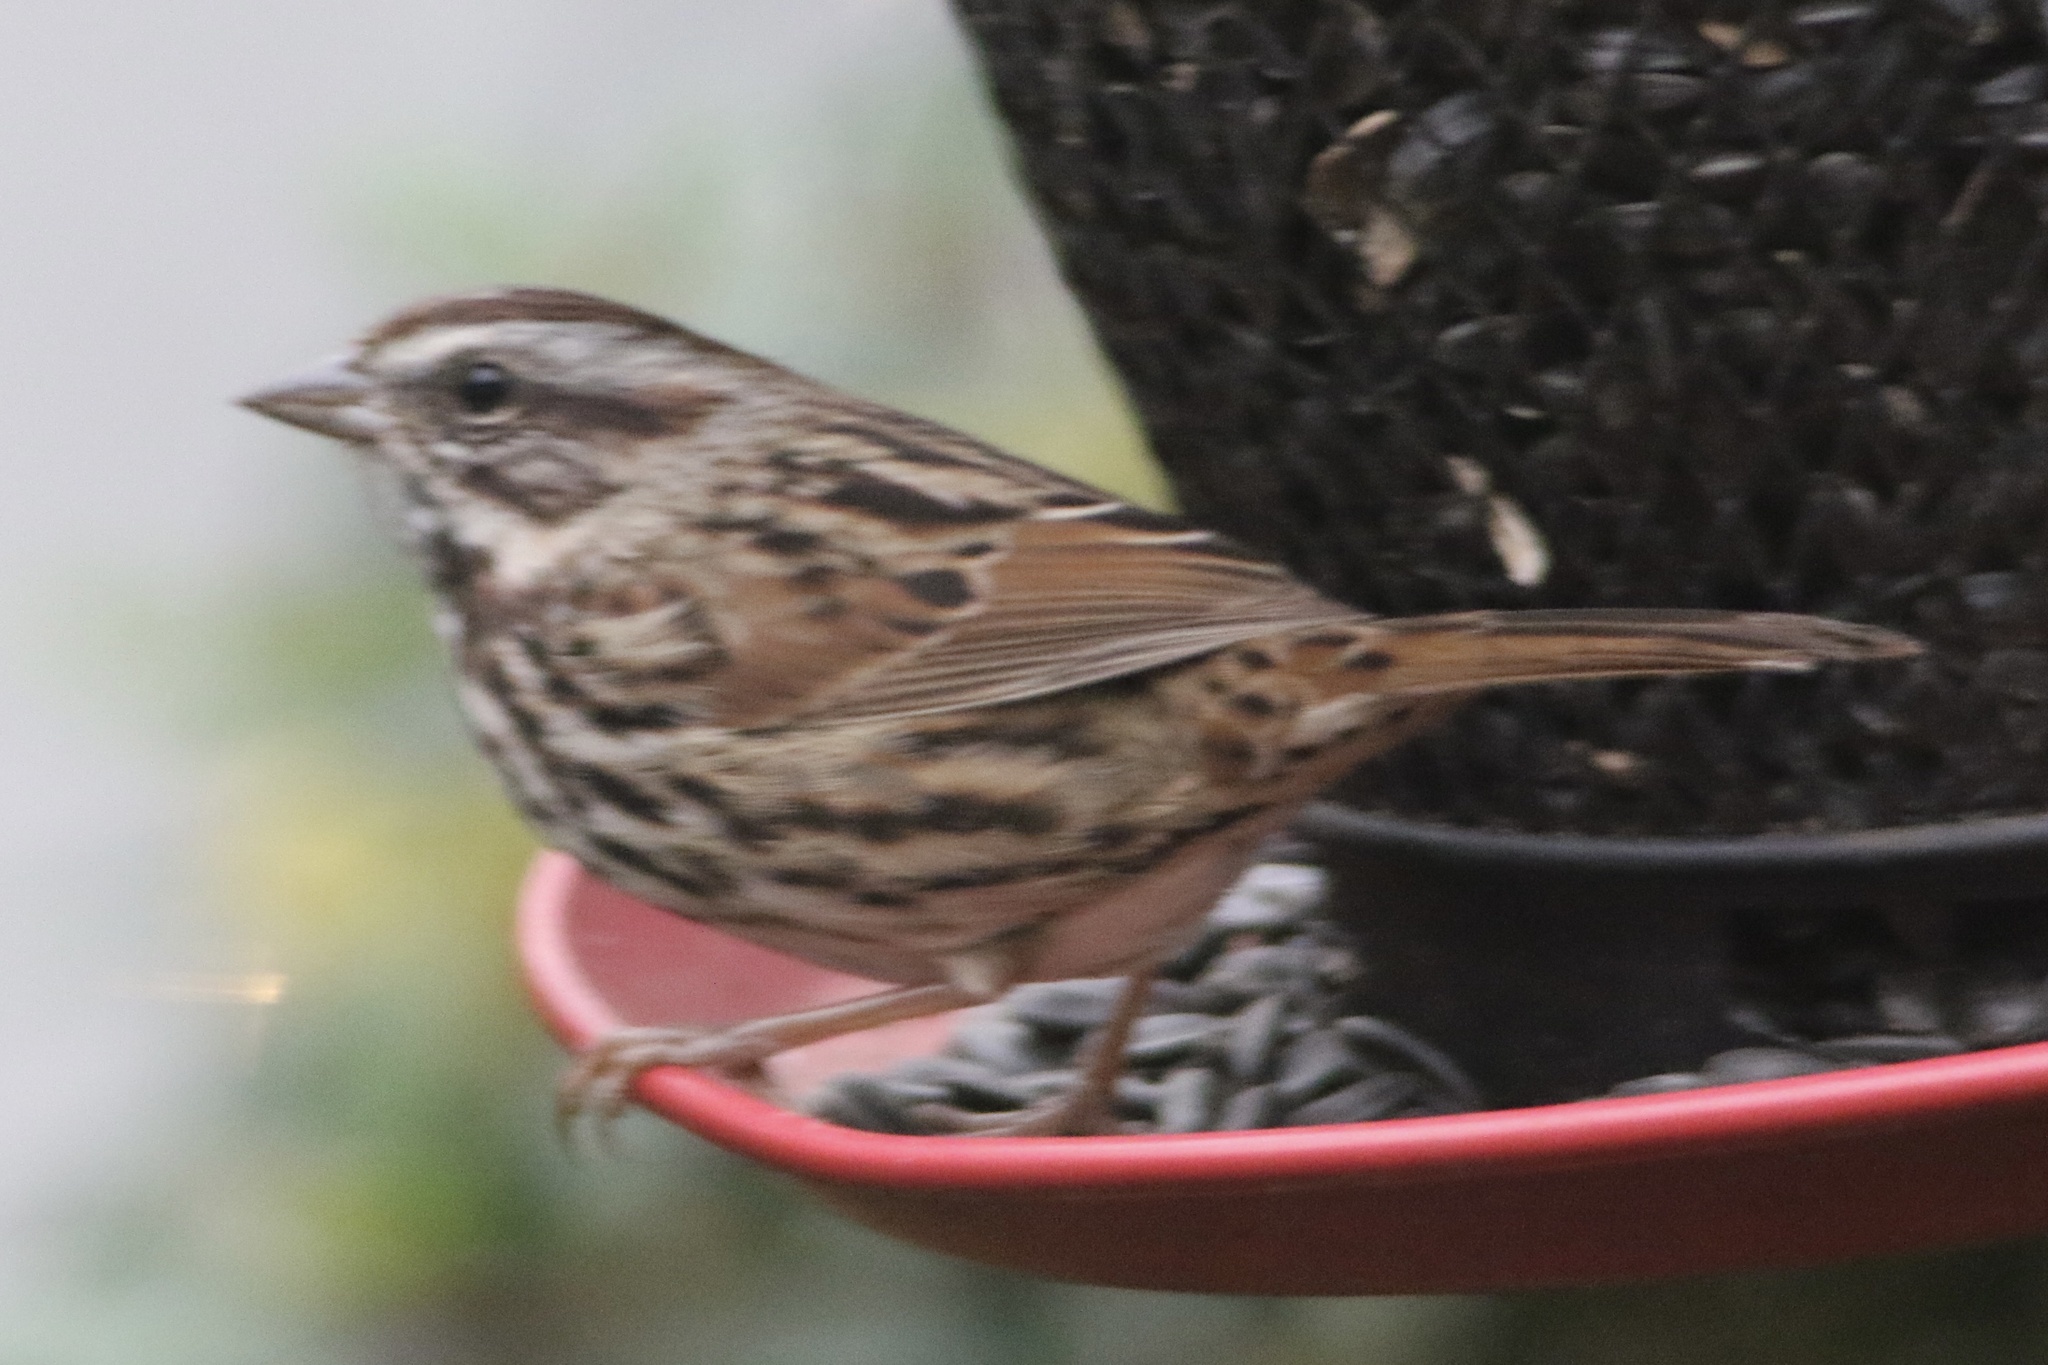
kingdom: Animalia
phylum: Chordata
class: Aves
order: Passeriformes
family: Passerellidae
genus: Melospiza
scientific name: Melospiza melodia
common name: Song sparrow
